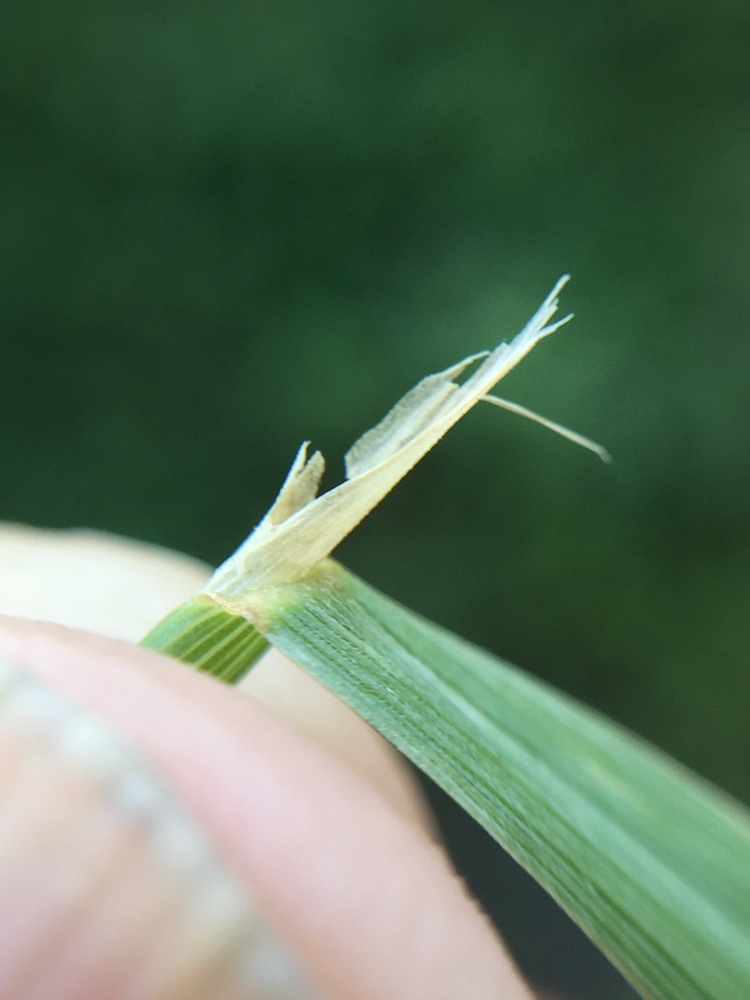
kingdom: Plantae
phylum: Tracheophyta
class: Liliopsida
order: Poales
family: Poaceae
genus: Polypogon
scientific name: Polypogon monspeliensis
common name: Annual rabbitsfoot grass
